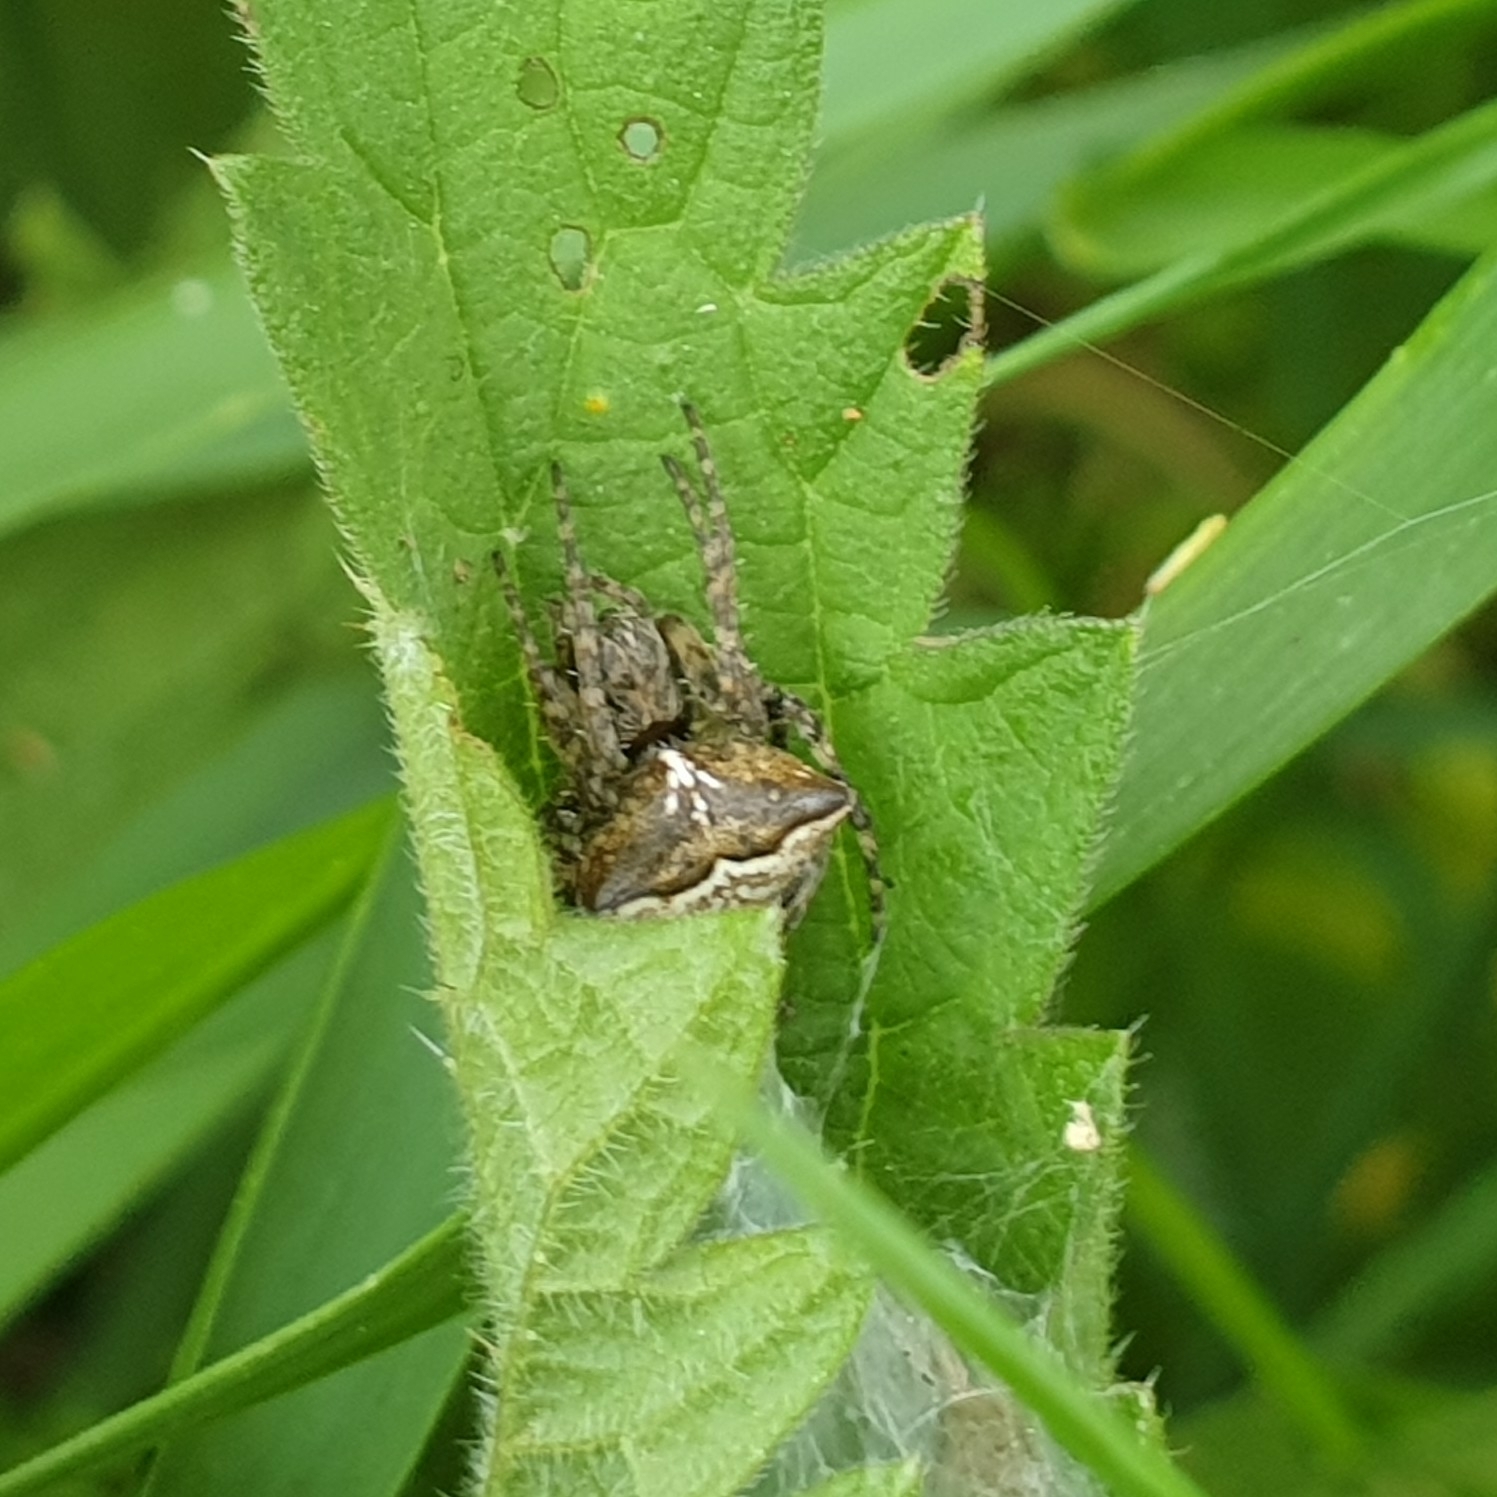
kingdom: Animalia
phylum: Arthropoda
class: Arachnida
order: Araneae
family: Araneidae
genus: Gibbaranea
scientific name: Gibbaranea bituberculata
